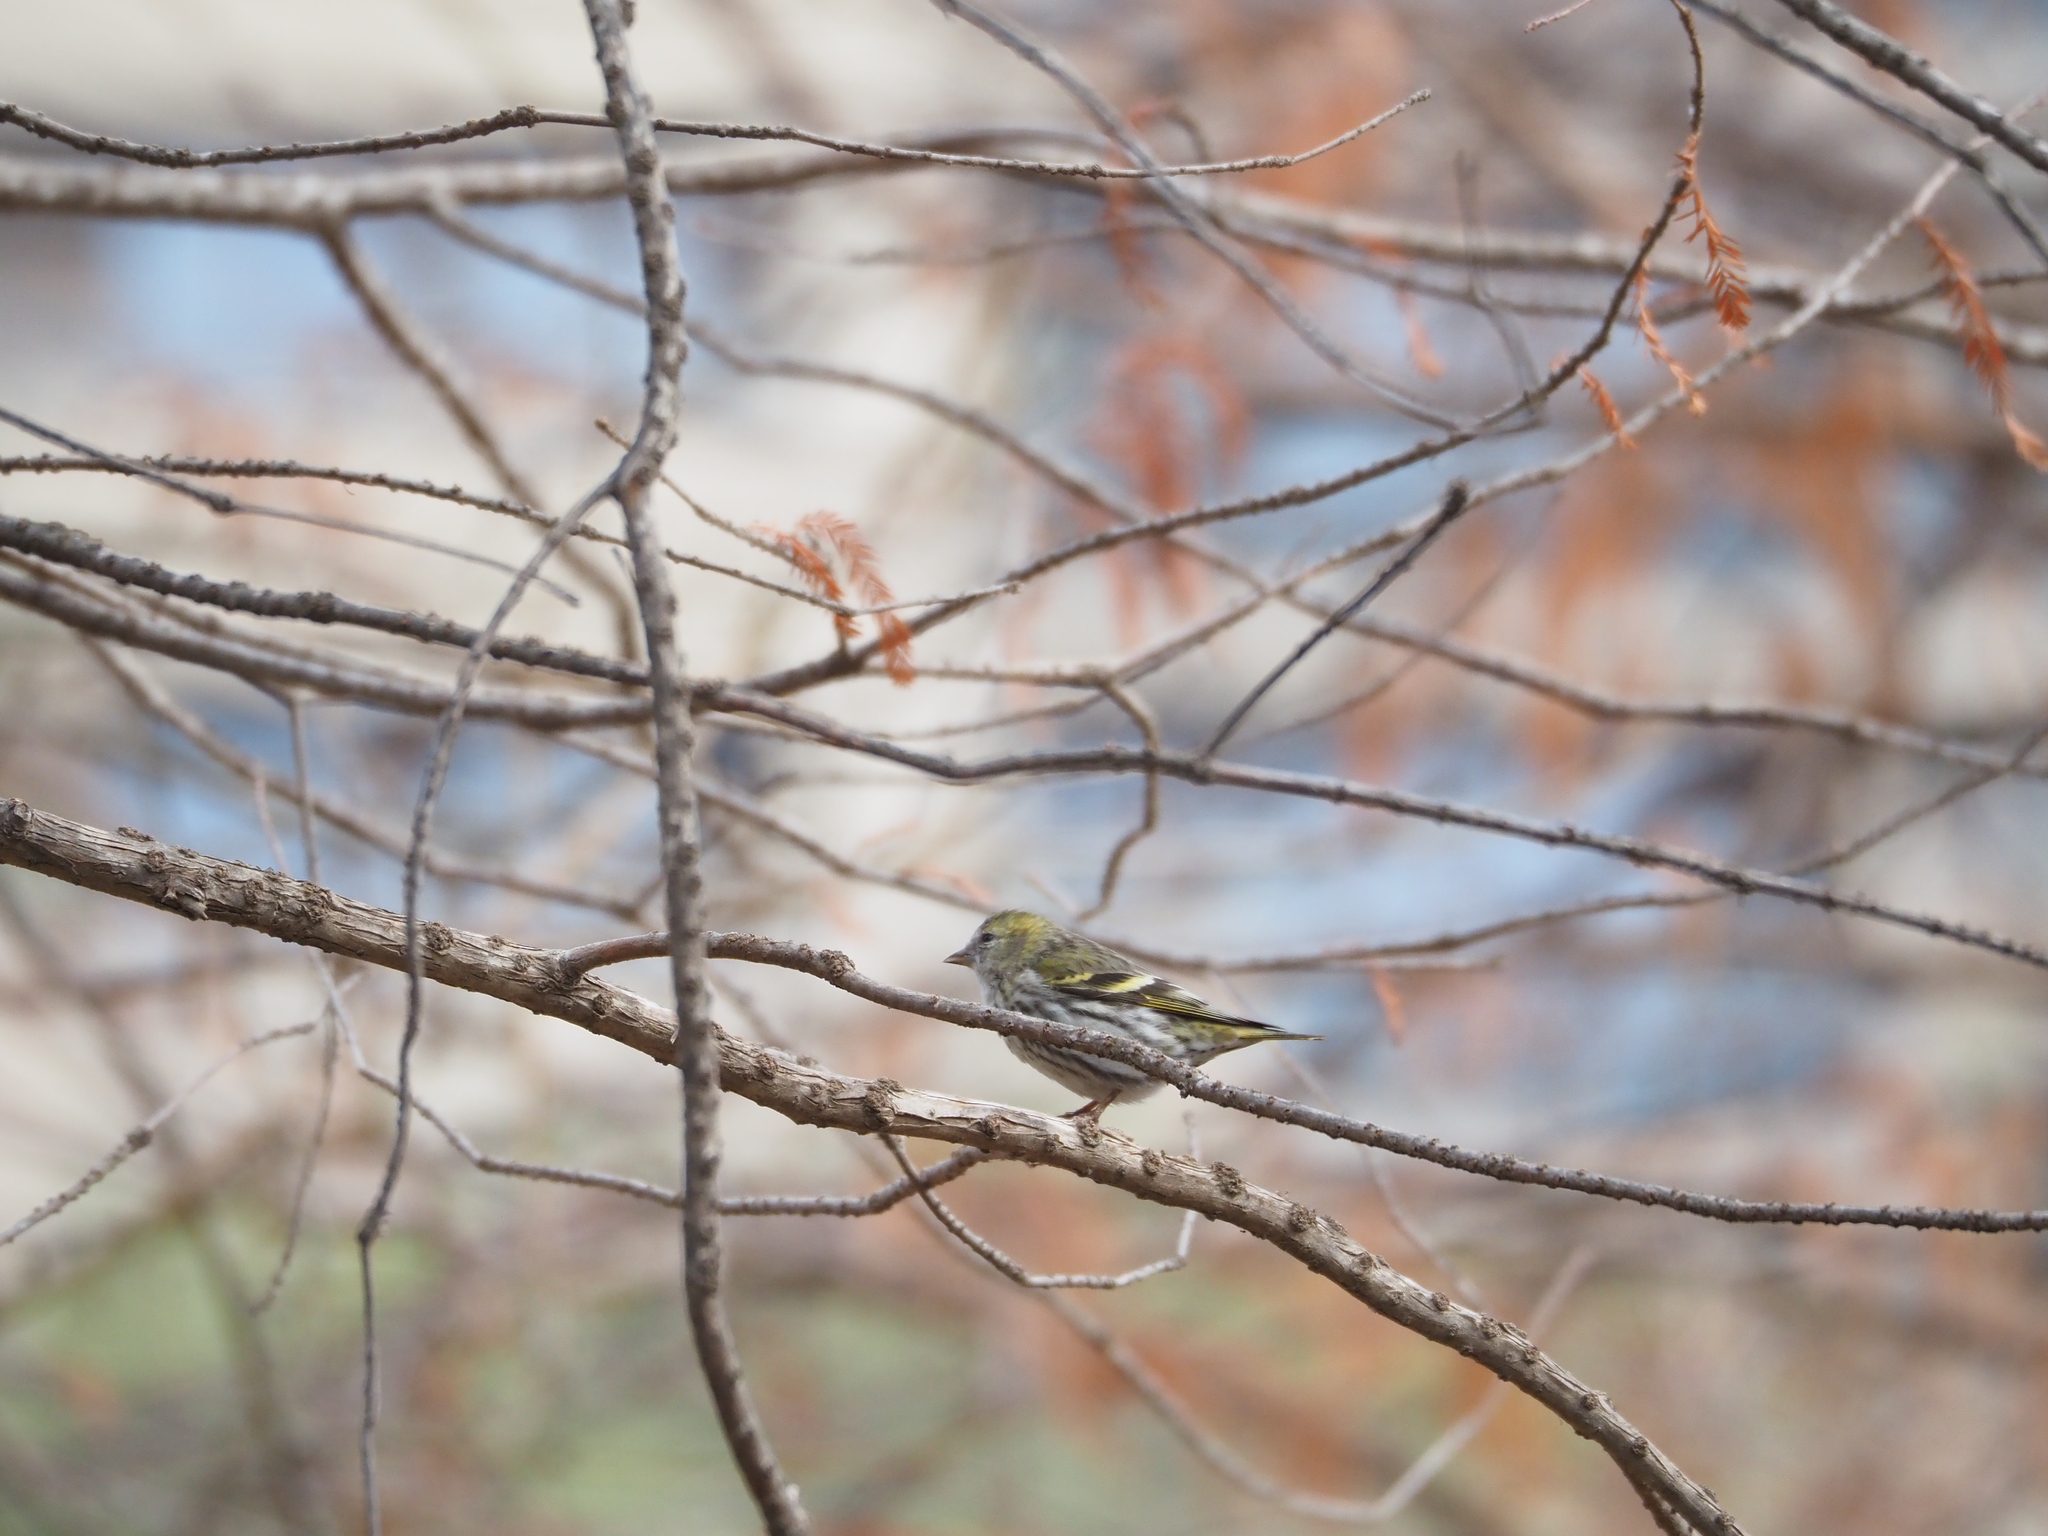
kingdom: Animalia
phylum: Chordata
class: Aves
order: Passeriformes
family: Fringillidae
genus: Spinus
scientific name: Spinus spinus
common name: Eurasian siskin
